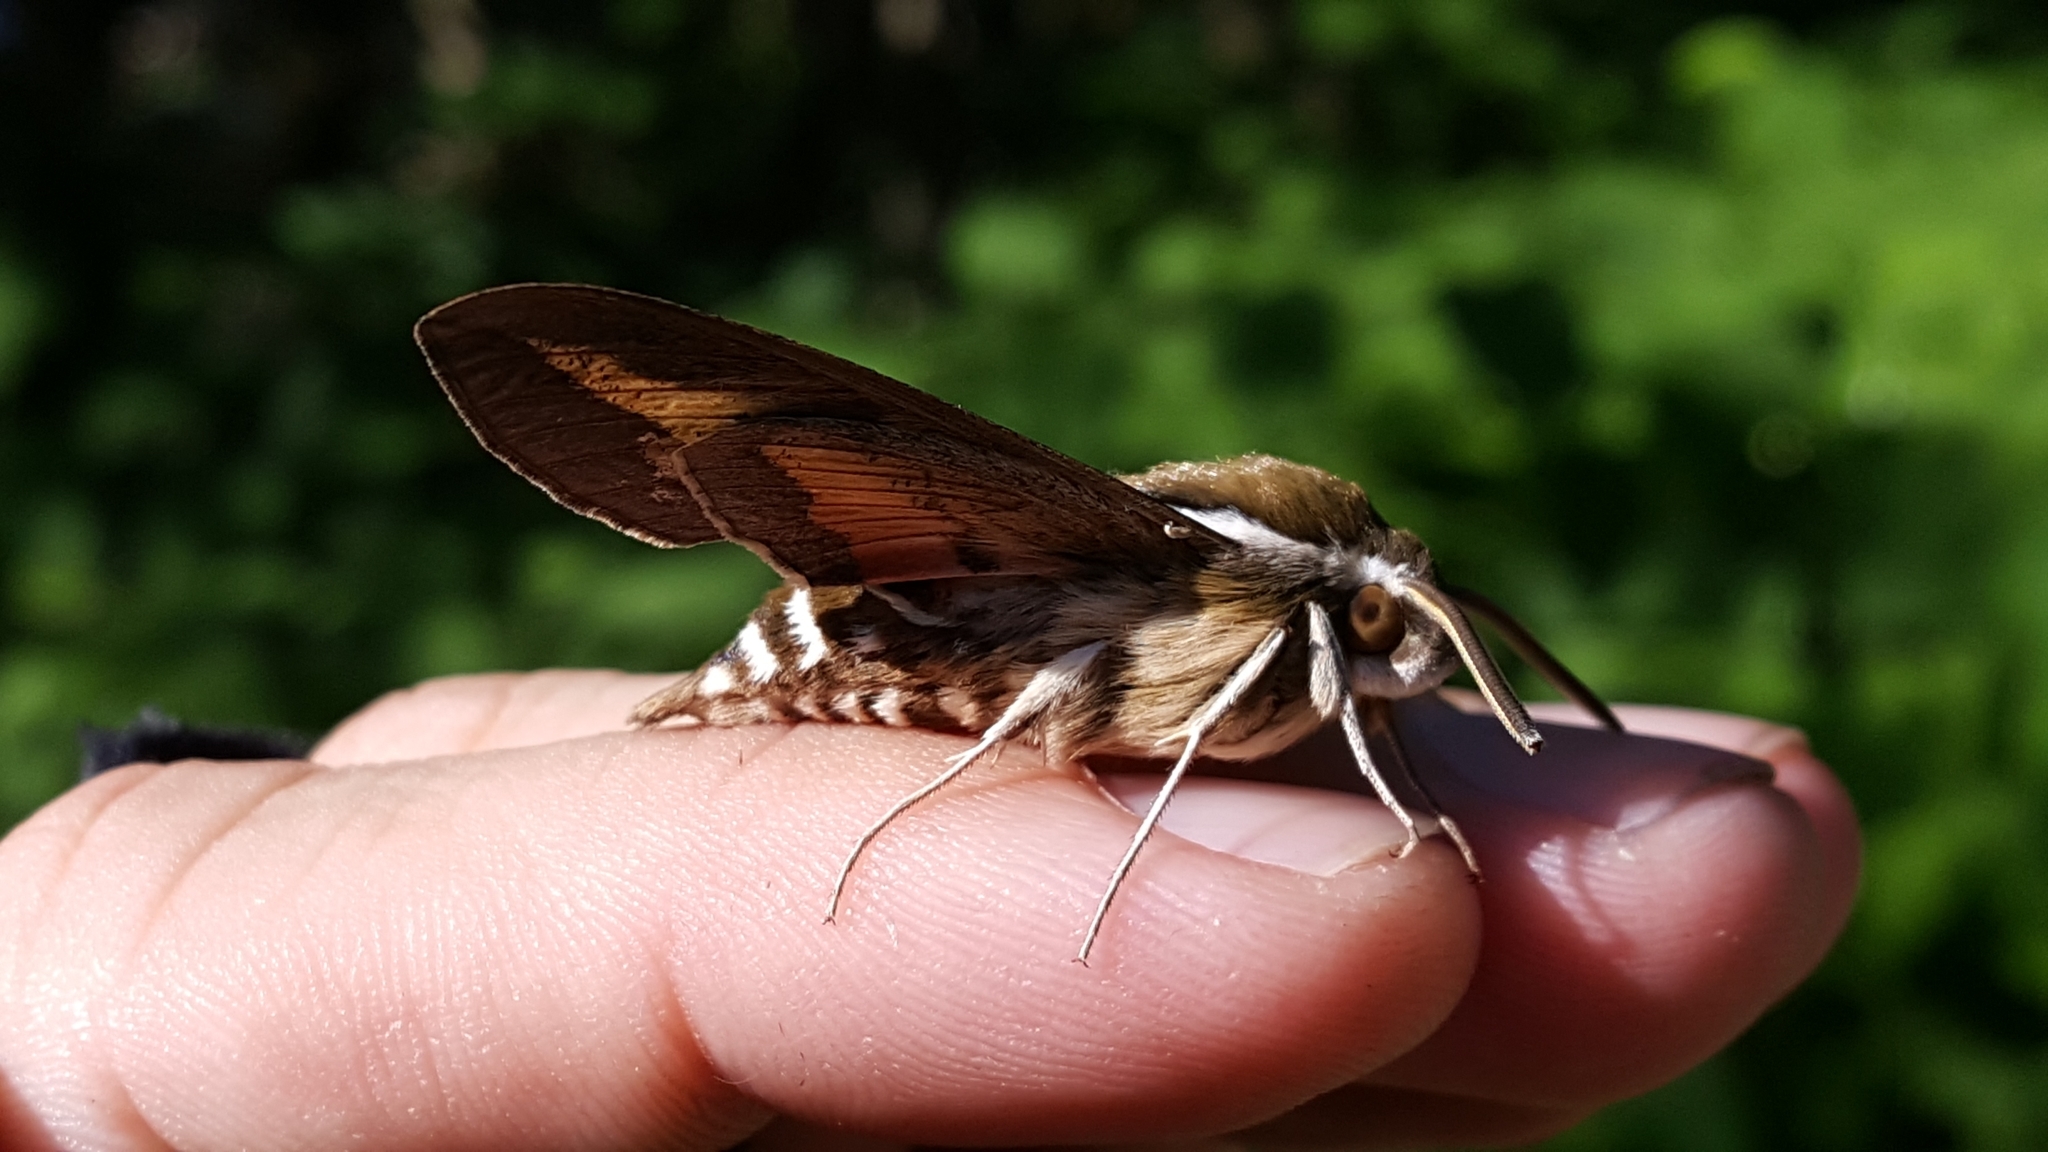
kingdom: Animalia
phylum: Arthropoda
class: Insecta
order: Lepidoptera
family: Sphingidae
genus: Hyles
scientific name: Hyles gallii
